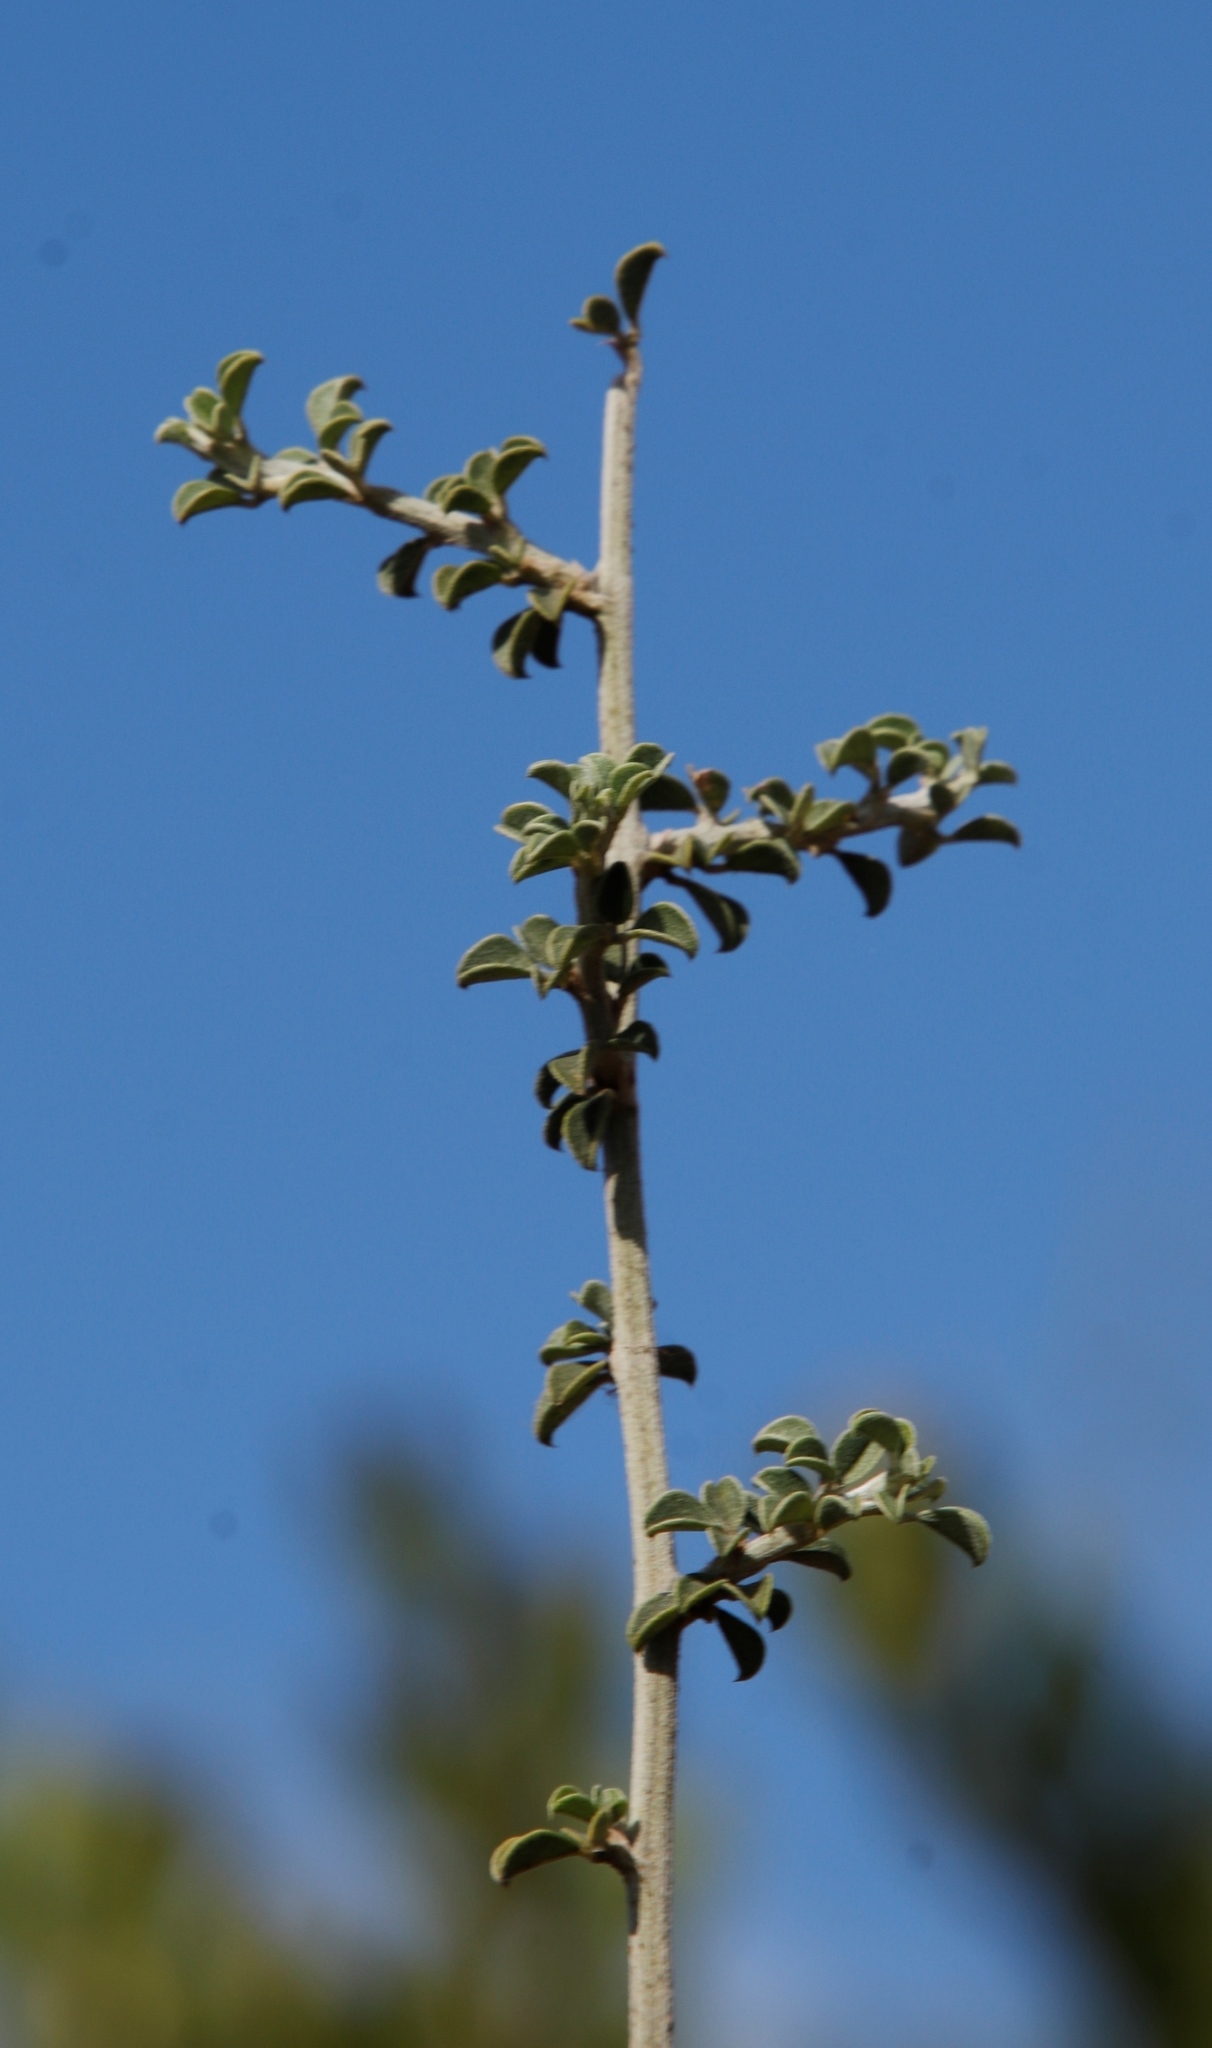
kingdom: Plantae
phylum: Tracheophyta
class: Magnoliopsida
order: Fabales
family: Fabaceae
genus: Psoralea
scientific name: Psoralea hirta
